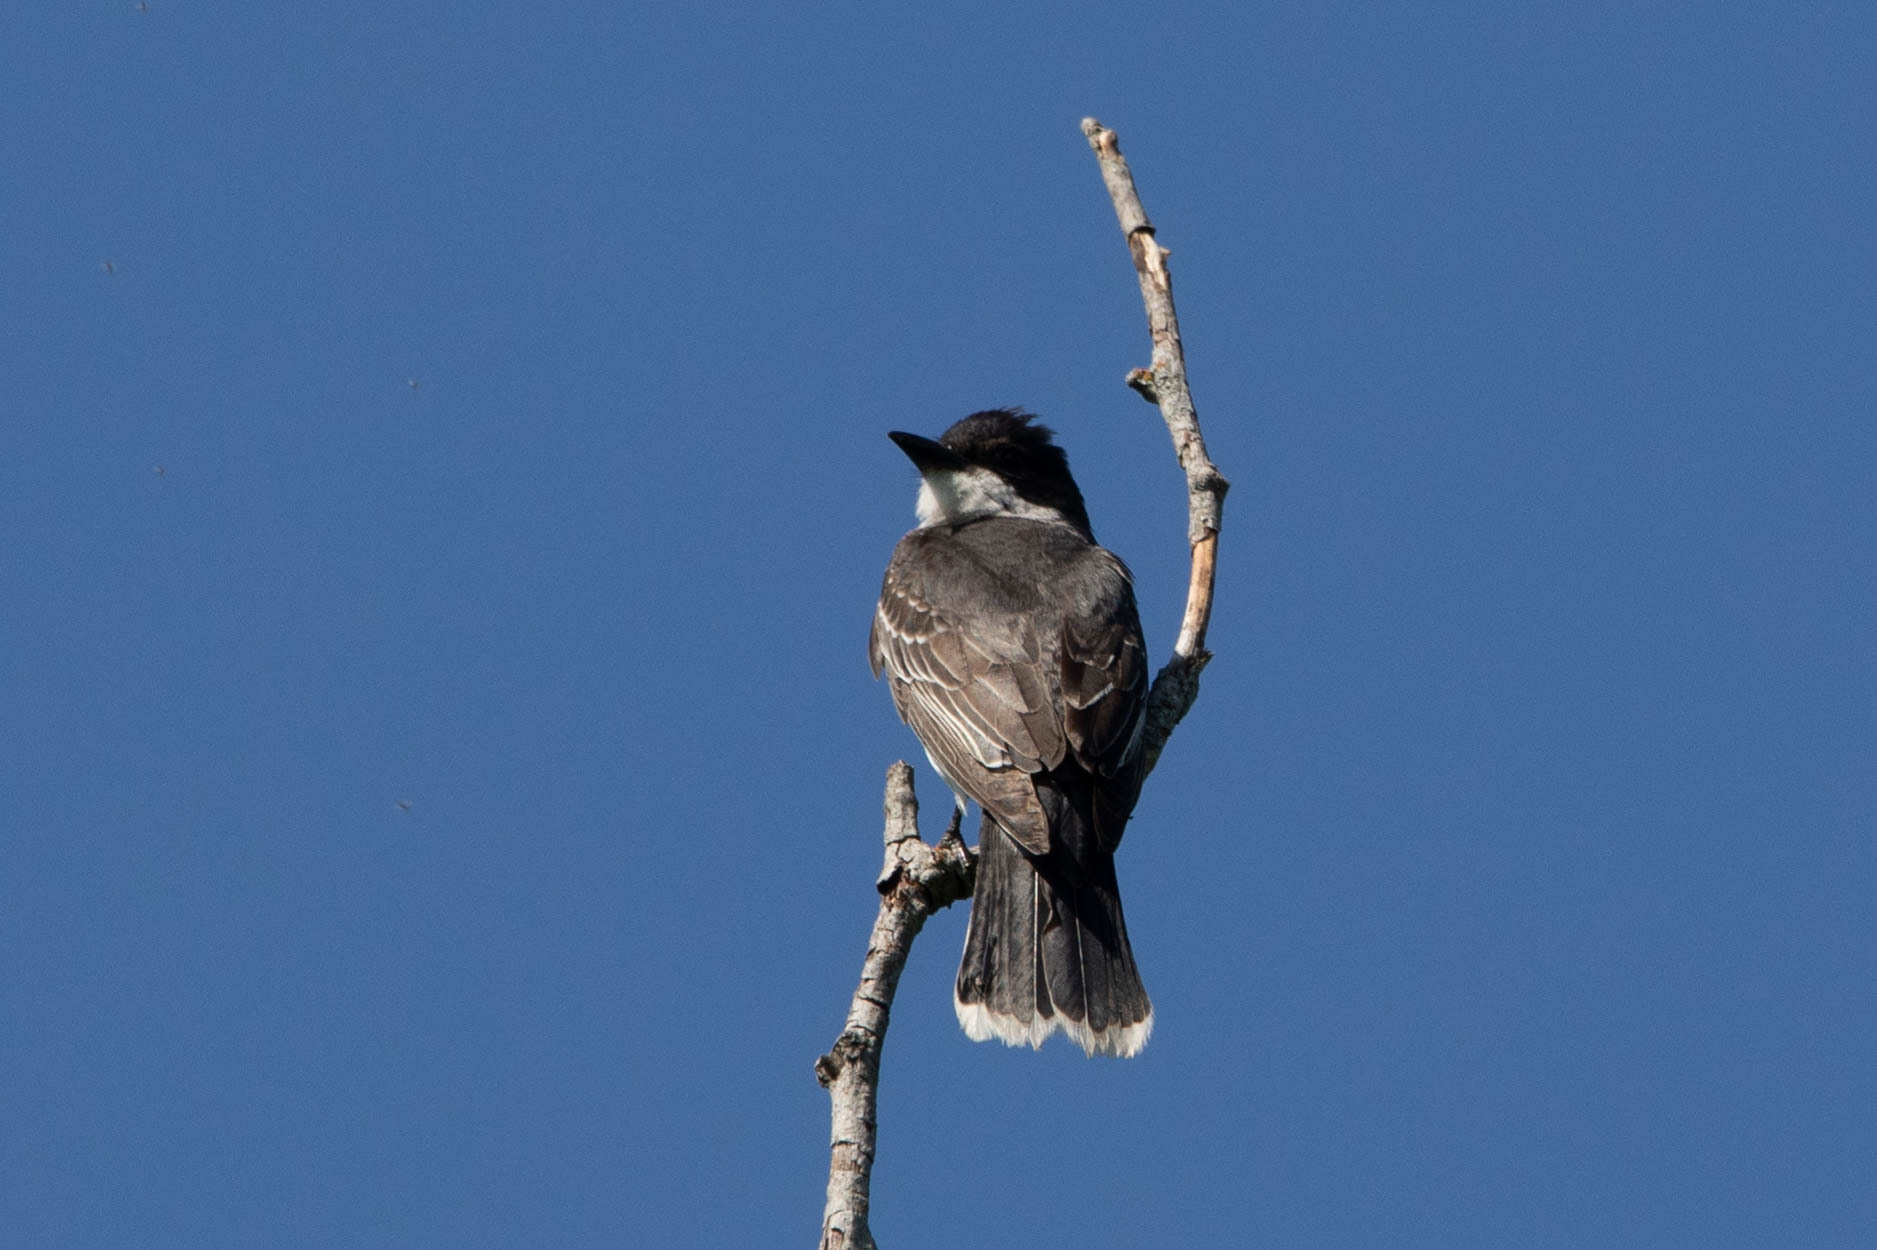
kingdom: Animalia
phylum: Chordata
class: Aves
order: Passeriformes
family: Tyrannidae
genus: Tyrannus
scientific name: Tyrannus tyrannus
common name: Eastern kingbird
